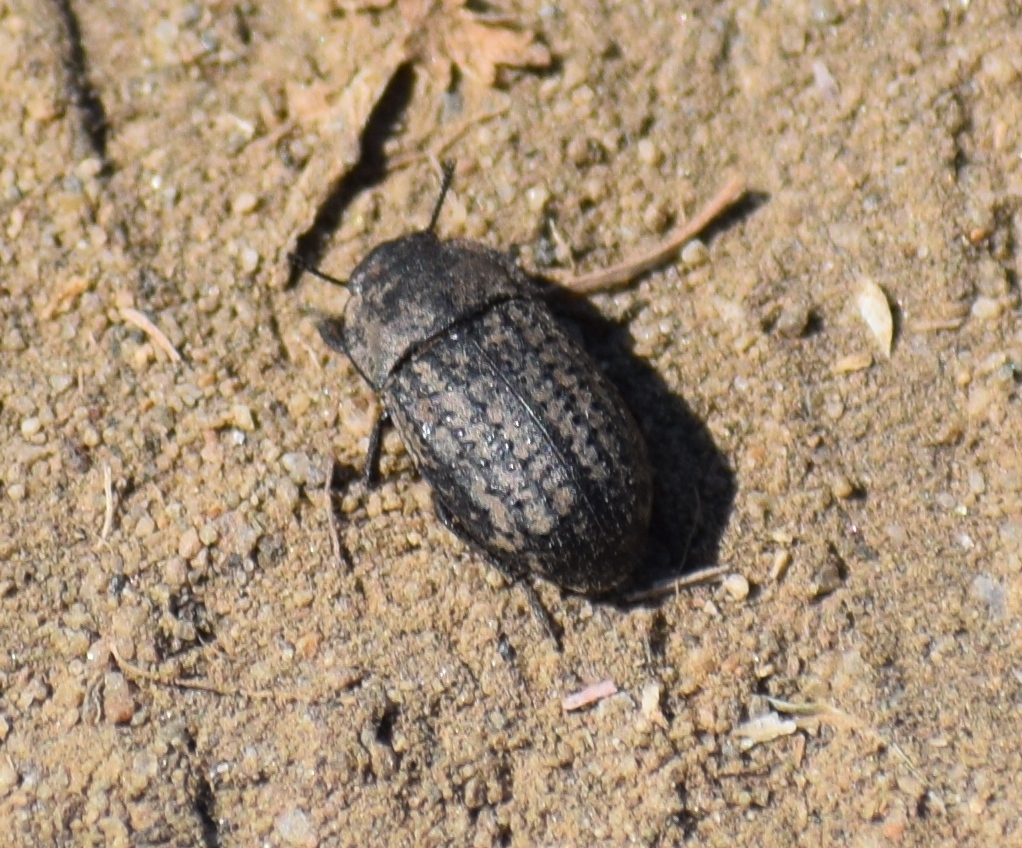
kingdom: Animalia
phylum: Arthropoda
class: Insecta
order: Coleoptera
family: Tenebrionidae
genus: Opatrum
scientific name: Opatrum sabulosum
